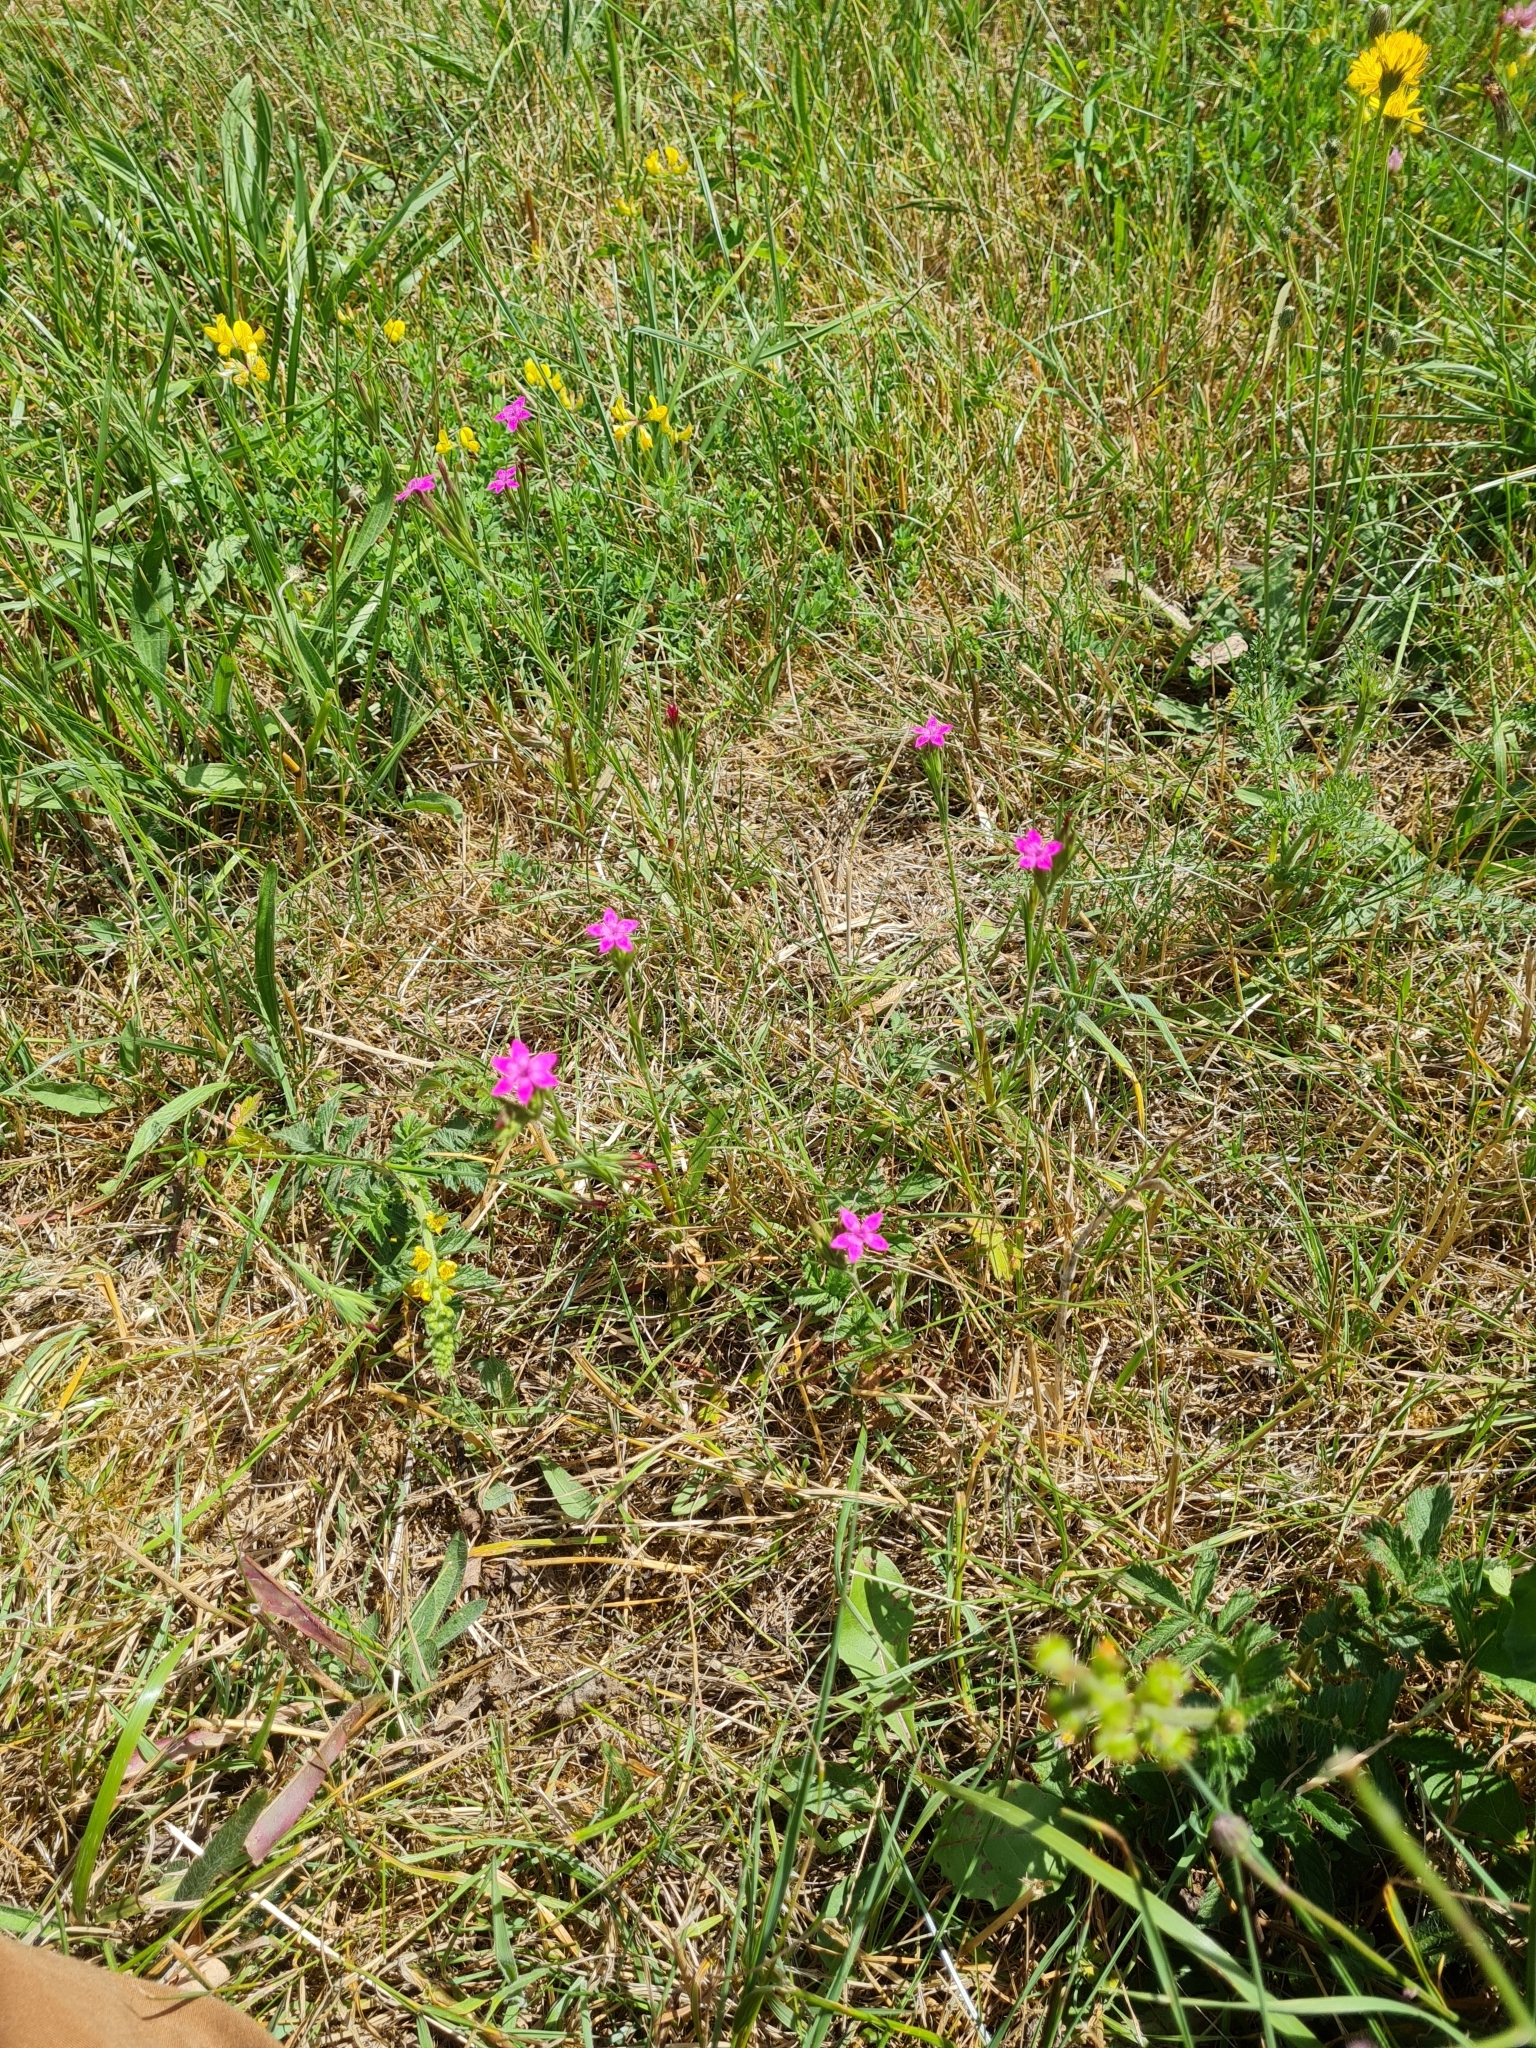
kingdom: Plantae
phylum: Tracheophyta
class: Magnoliopsida
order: Caryophyllales
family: Caryophyllaceae
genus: Dianthus
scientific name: Dianthus armeria
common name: Deptford pink
